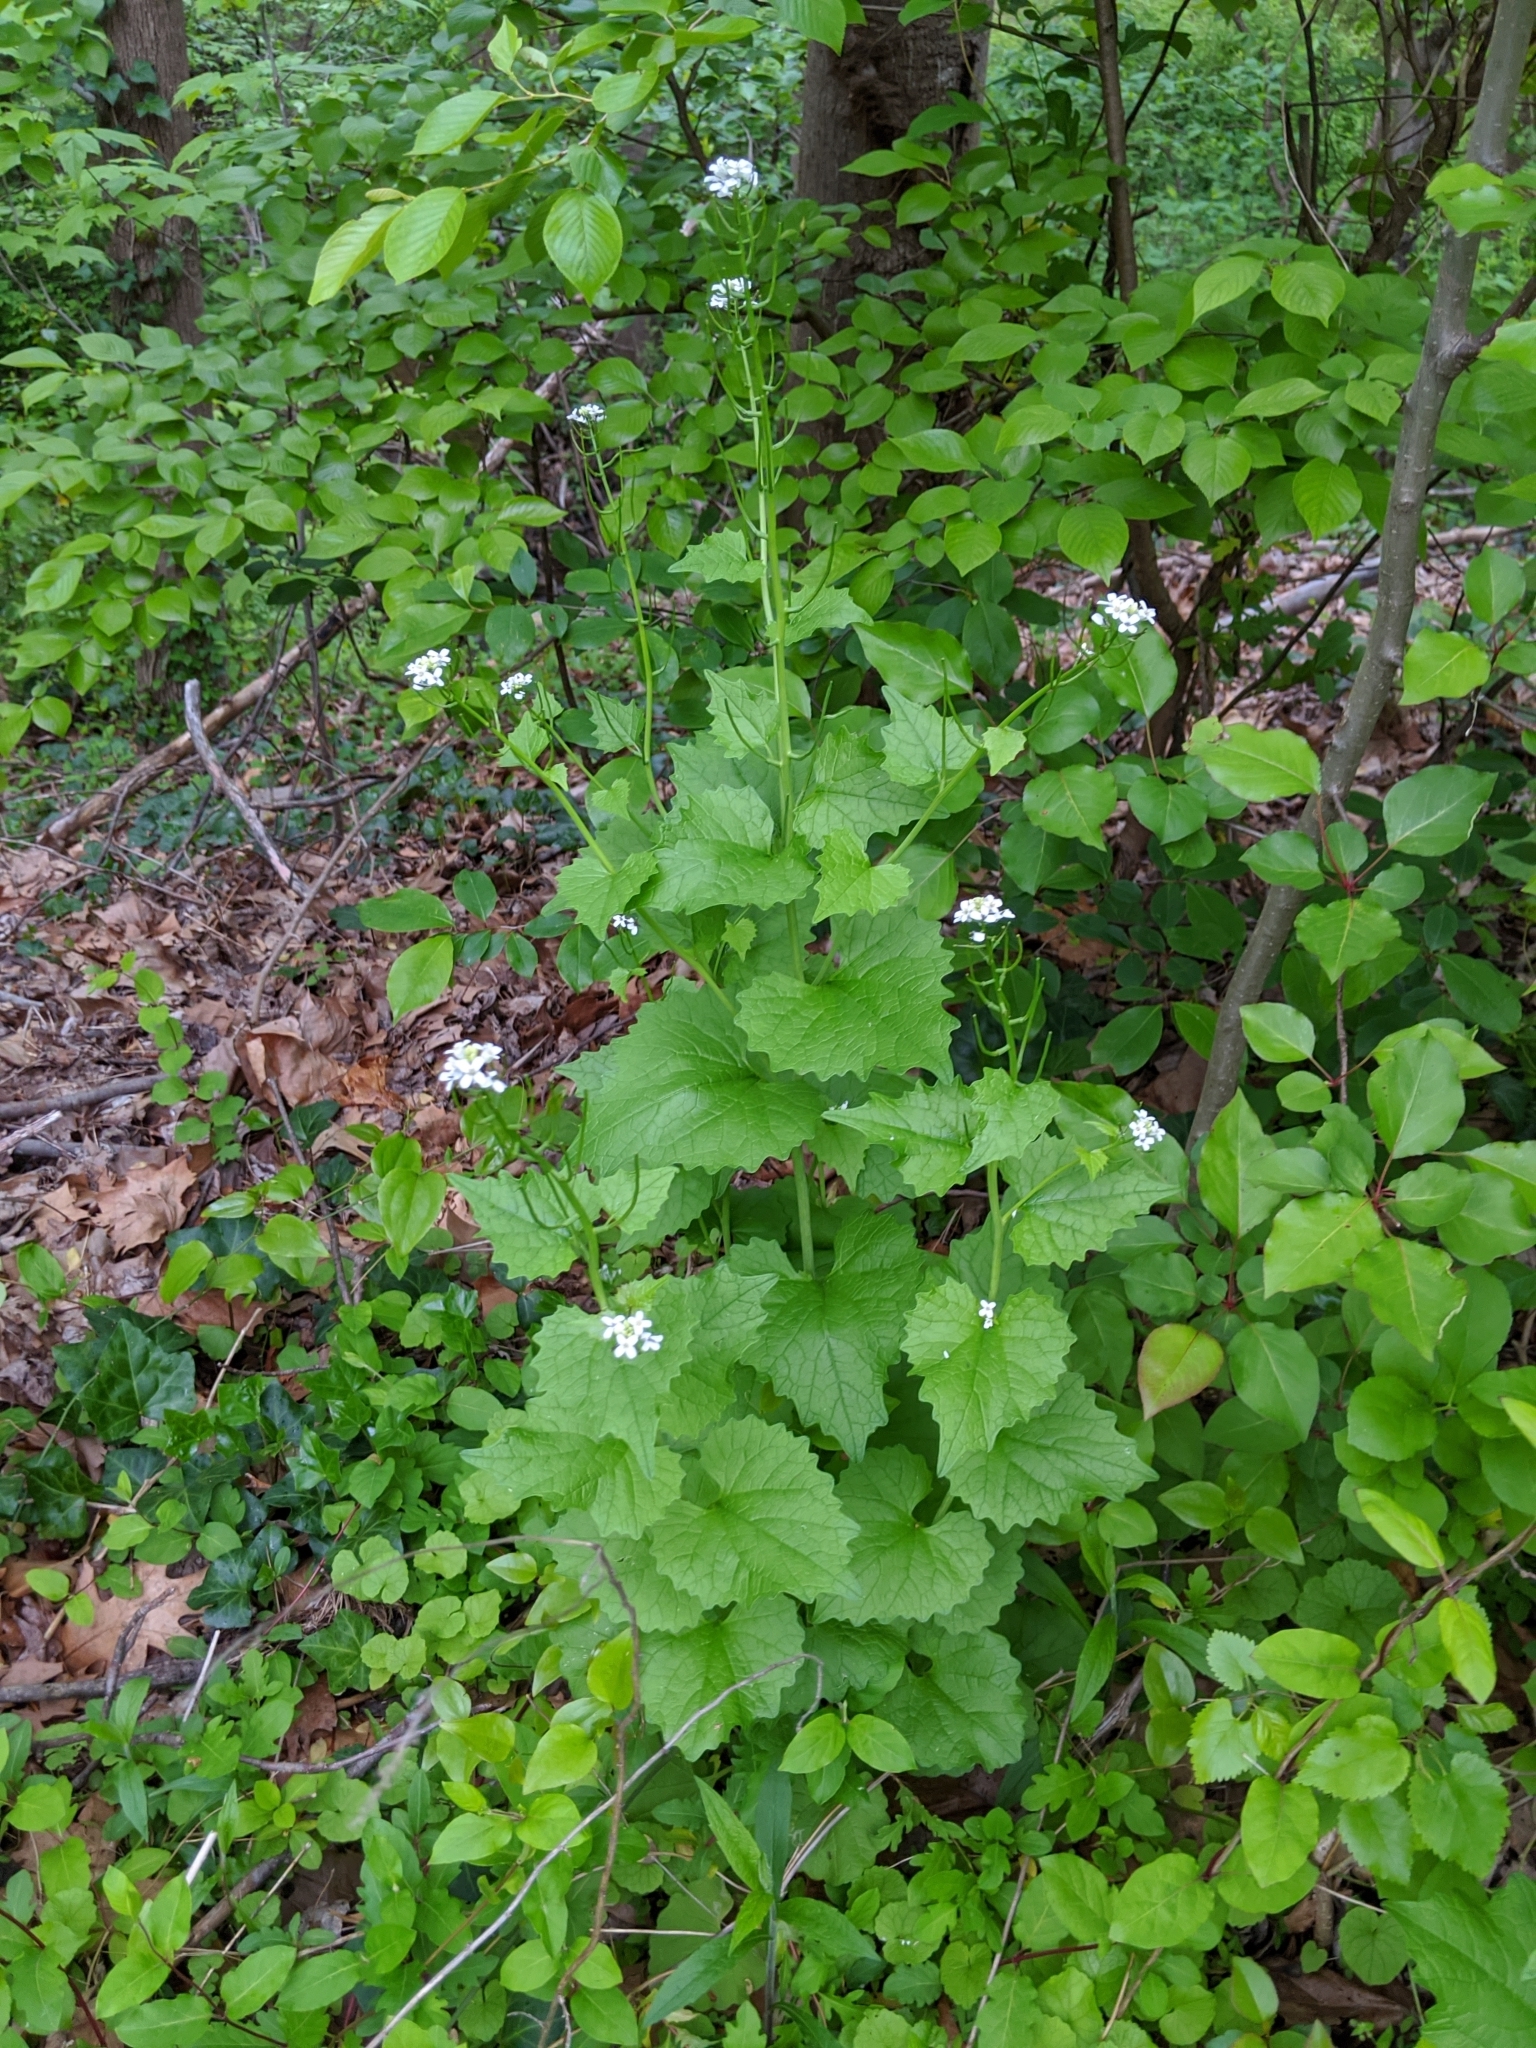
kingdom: Plantae
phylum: Tracheophyta
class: Magnoliopsida
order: Brassicales
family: Brassicaceae
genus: Alliaria
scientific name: Alliaria petiolata
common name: Garlic mustard
